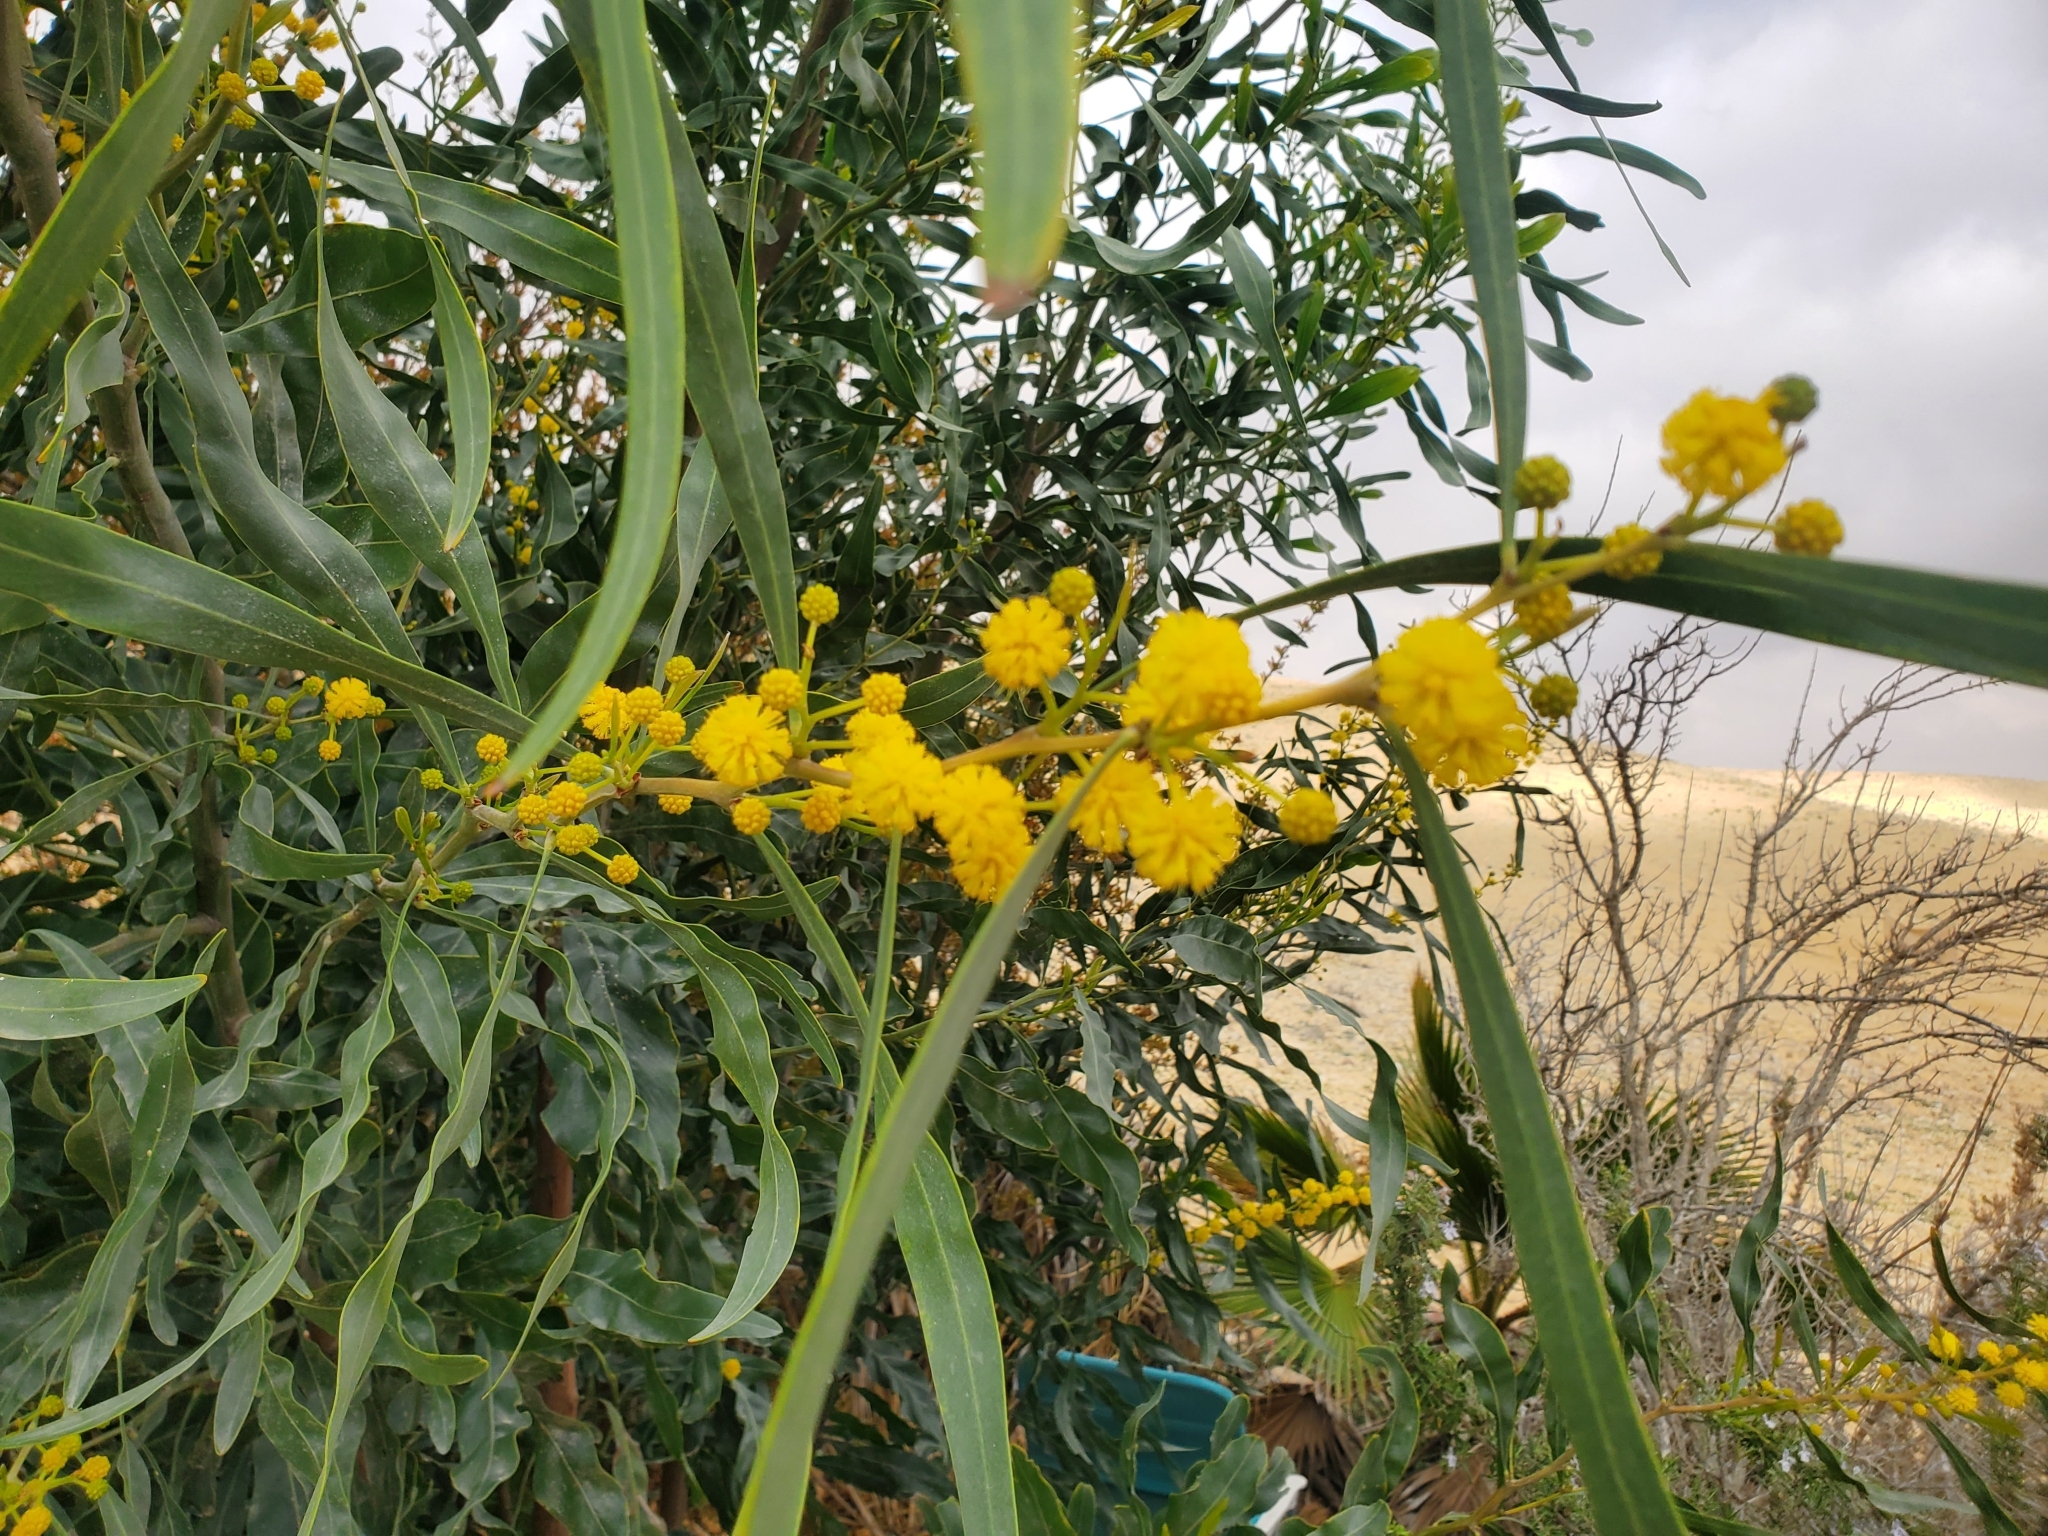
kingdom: Plantae
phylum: Tracheophyta
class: Magnoliopsida
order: Fabales
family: Fabaceae
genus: Acacia
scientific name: Acacia saligna
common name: Orange wattle
